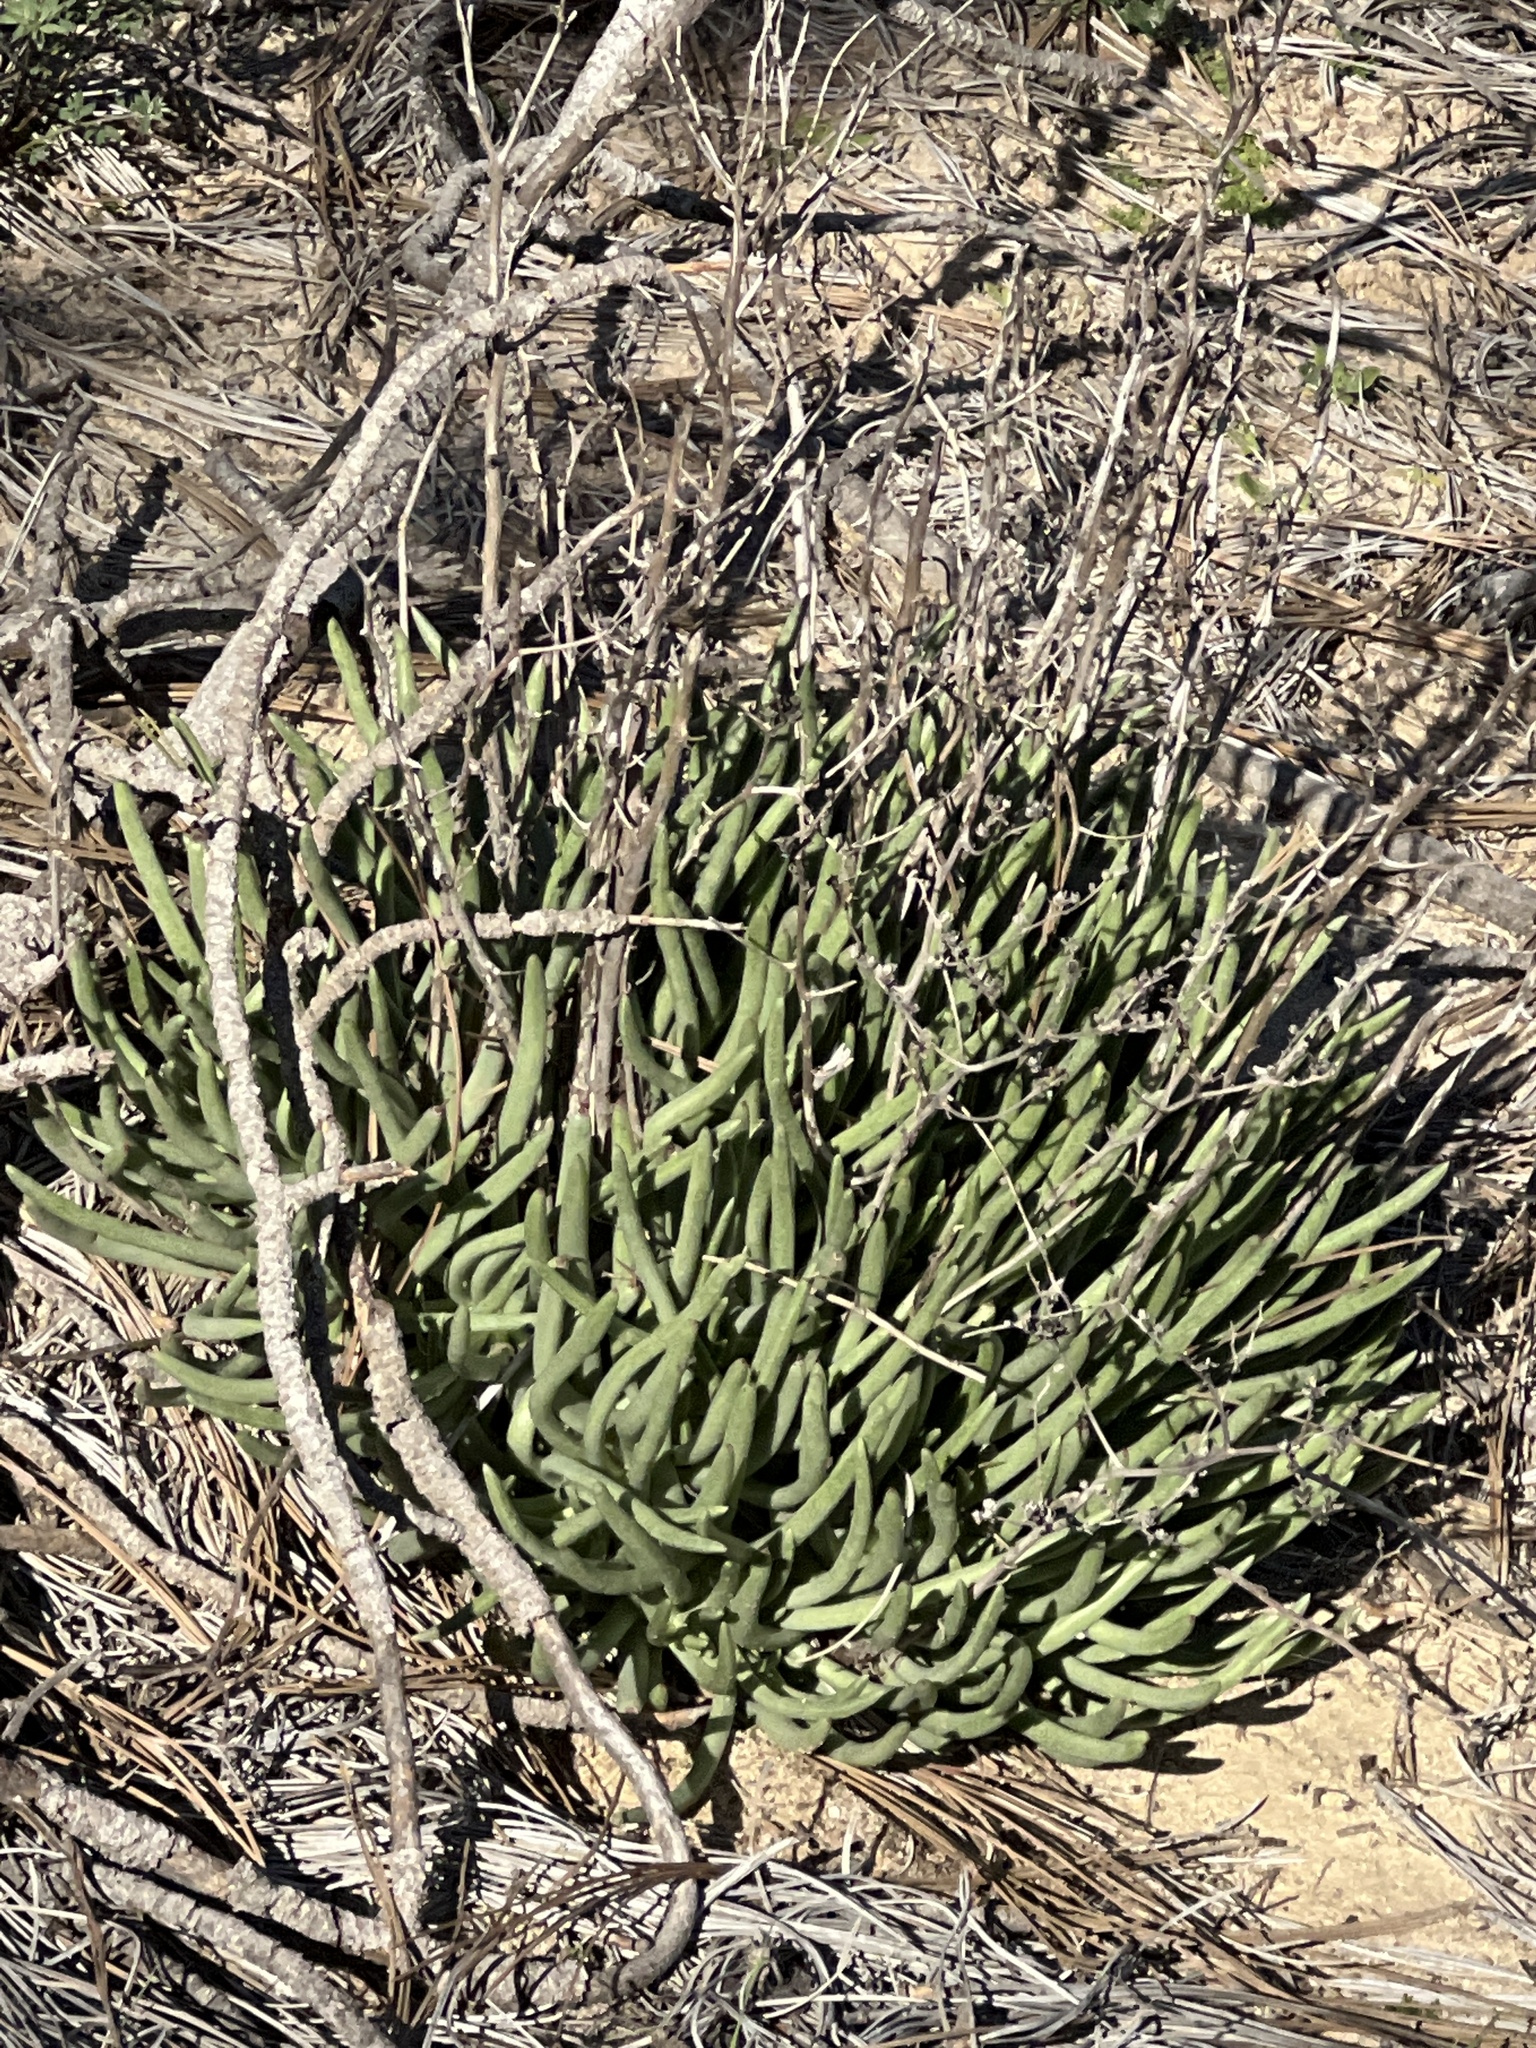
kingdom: Plantae
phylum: Tracheophyta
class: Magnoliopsida
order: Saxifragales
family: Crassulaceae
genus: Dudleya
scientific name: Dudleya edulis
